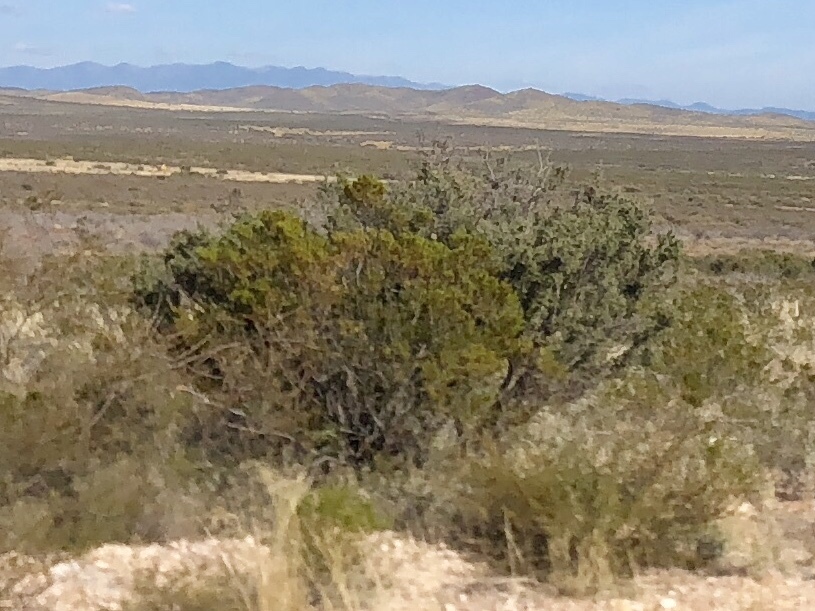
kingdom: Plantae
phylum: Tracheophyta
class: Magnoliopsida
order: Zygophyllales
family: Zygophyllaceae
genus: Larrea
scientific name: Larrea tridentata
